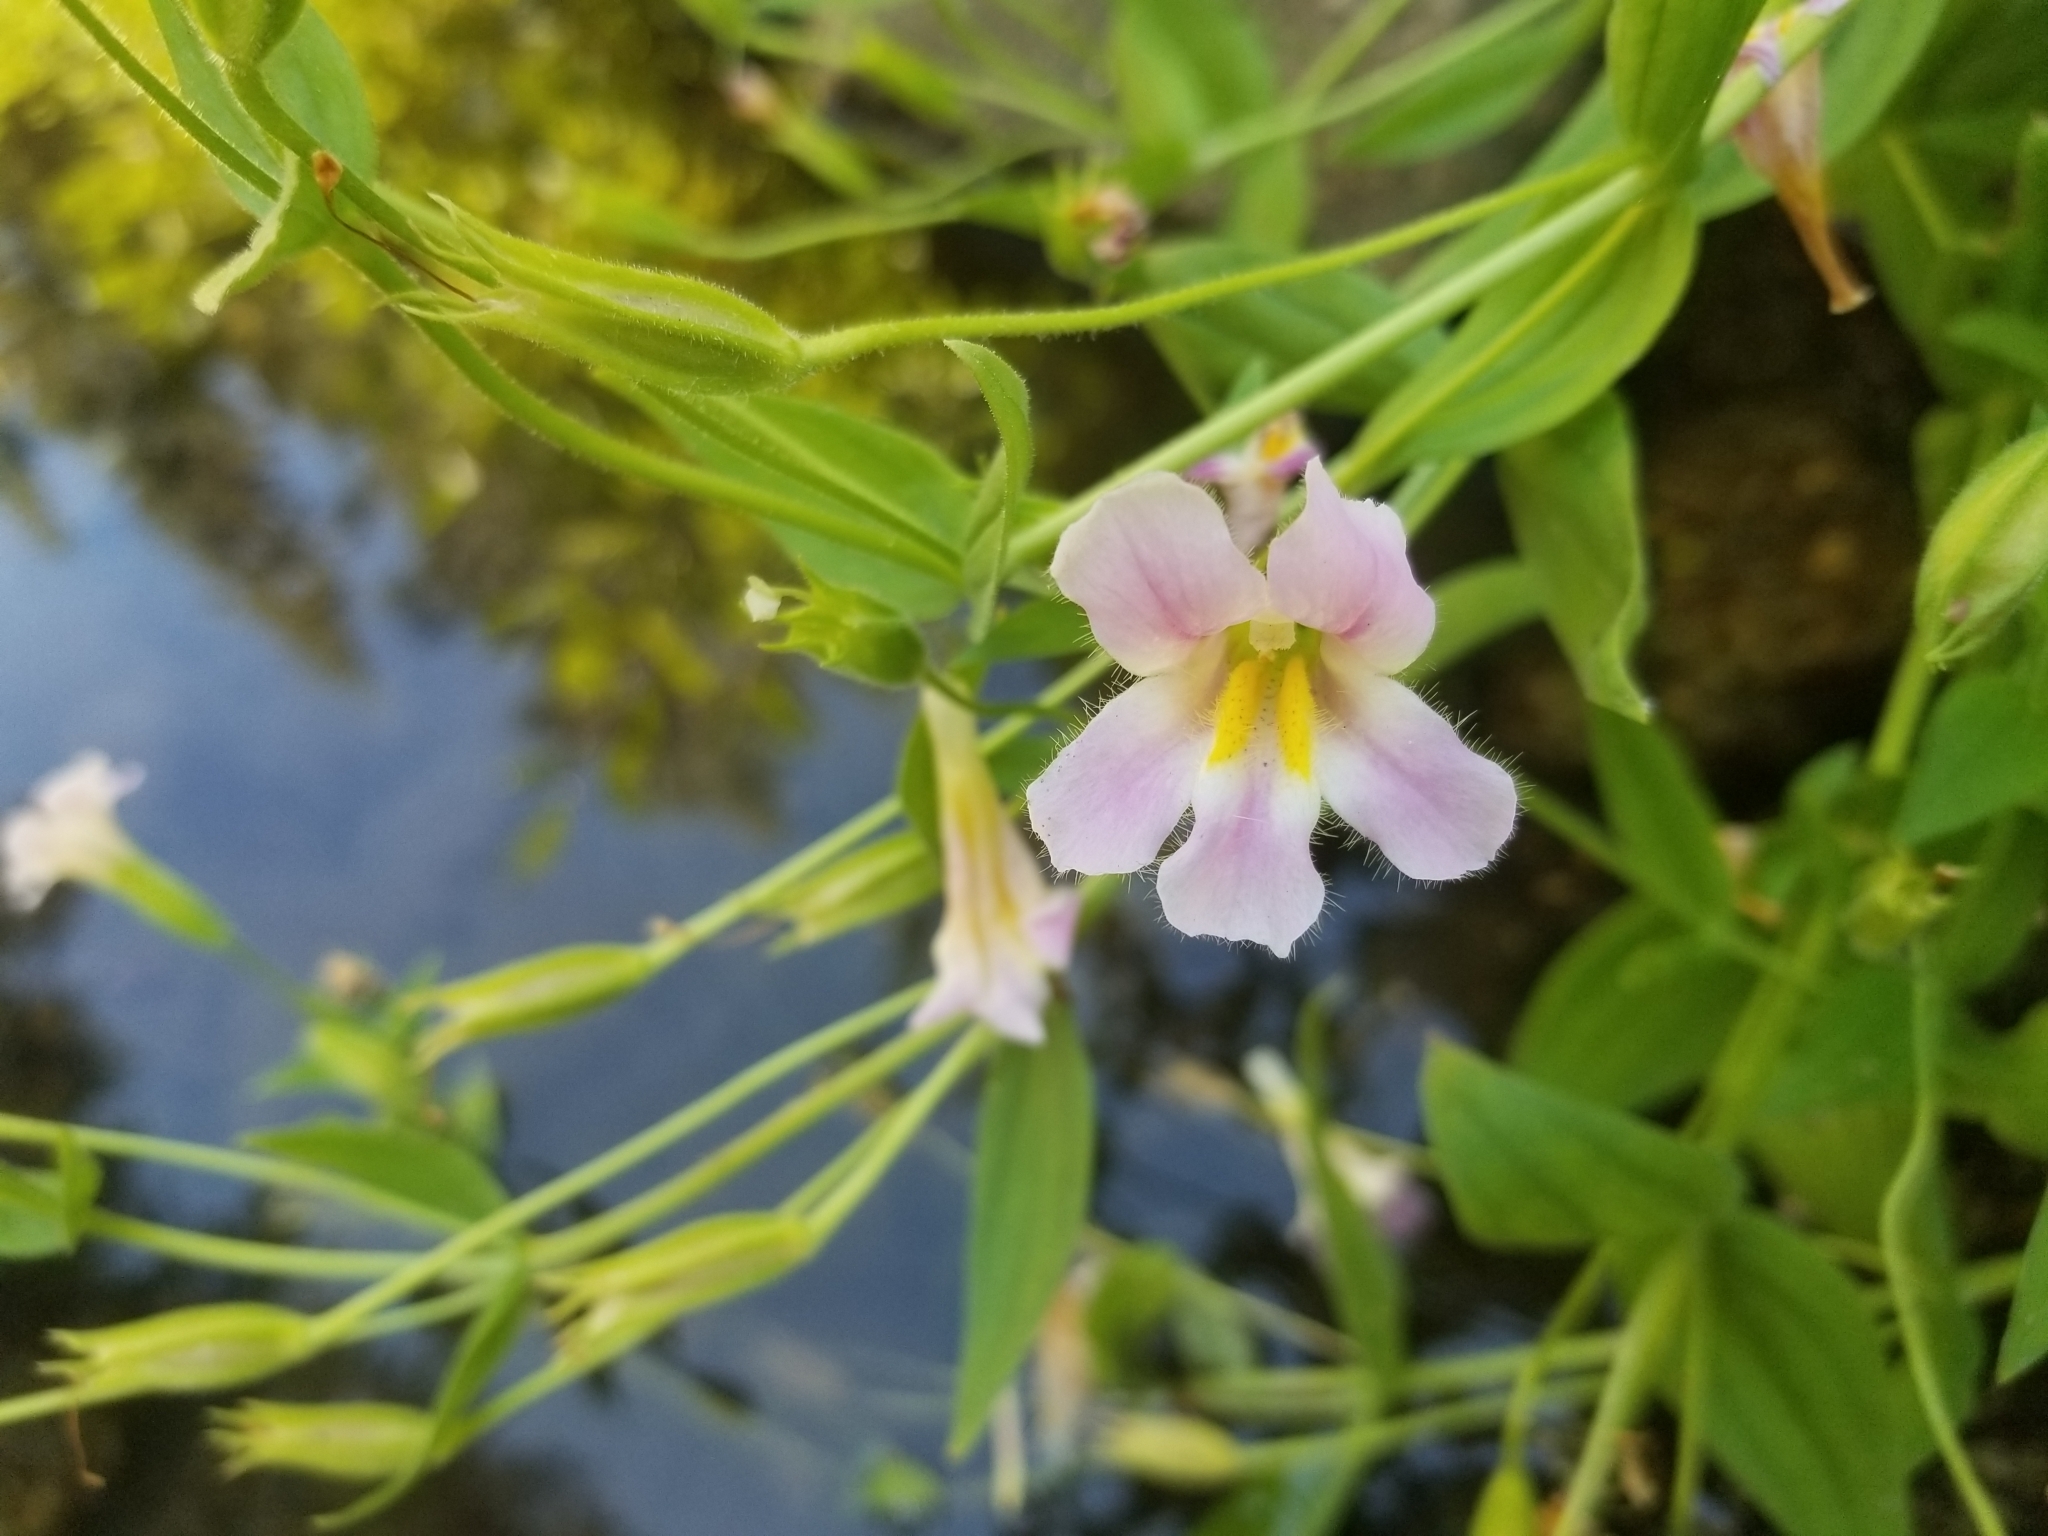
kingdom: Plantae
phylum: Tracheophyta
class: Magnoliopsida
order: Lamiales
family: Phrymaceae
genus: Erythranthe
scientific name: Erythranthe erubescens
